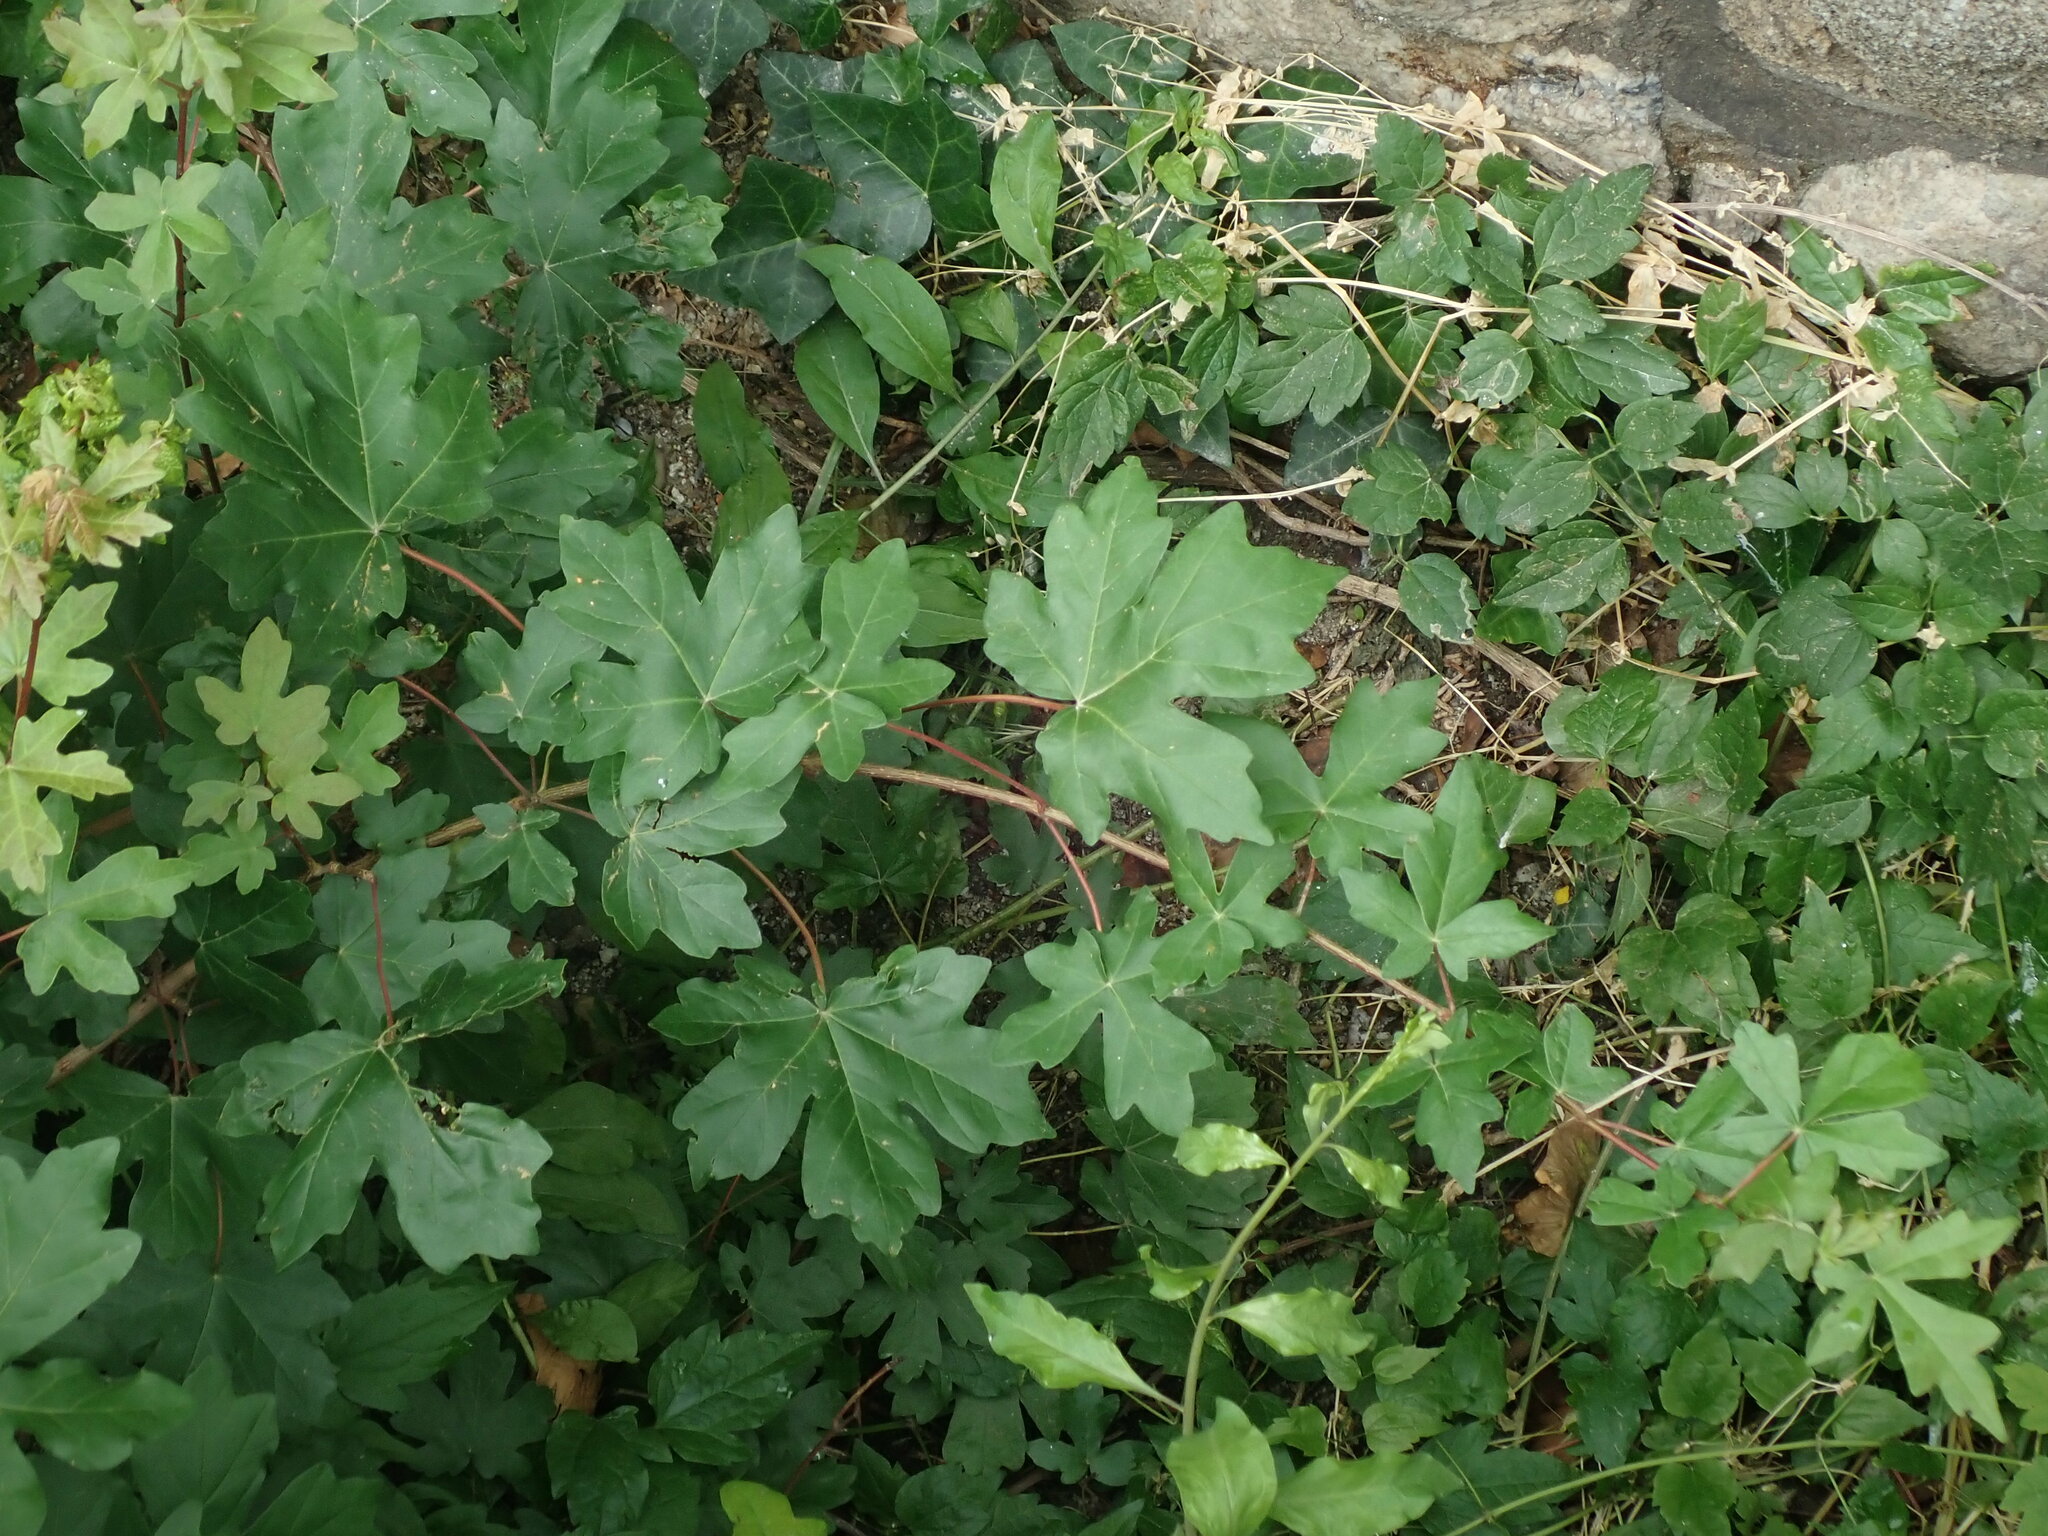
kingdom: Plantae
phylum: Tracheophyta
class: Magnoliopsida
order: Sapindales
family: Sapindaceae
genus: Acer
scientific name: Acer campestre
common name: Field maple
